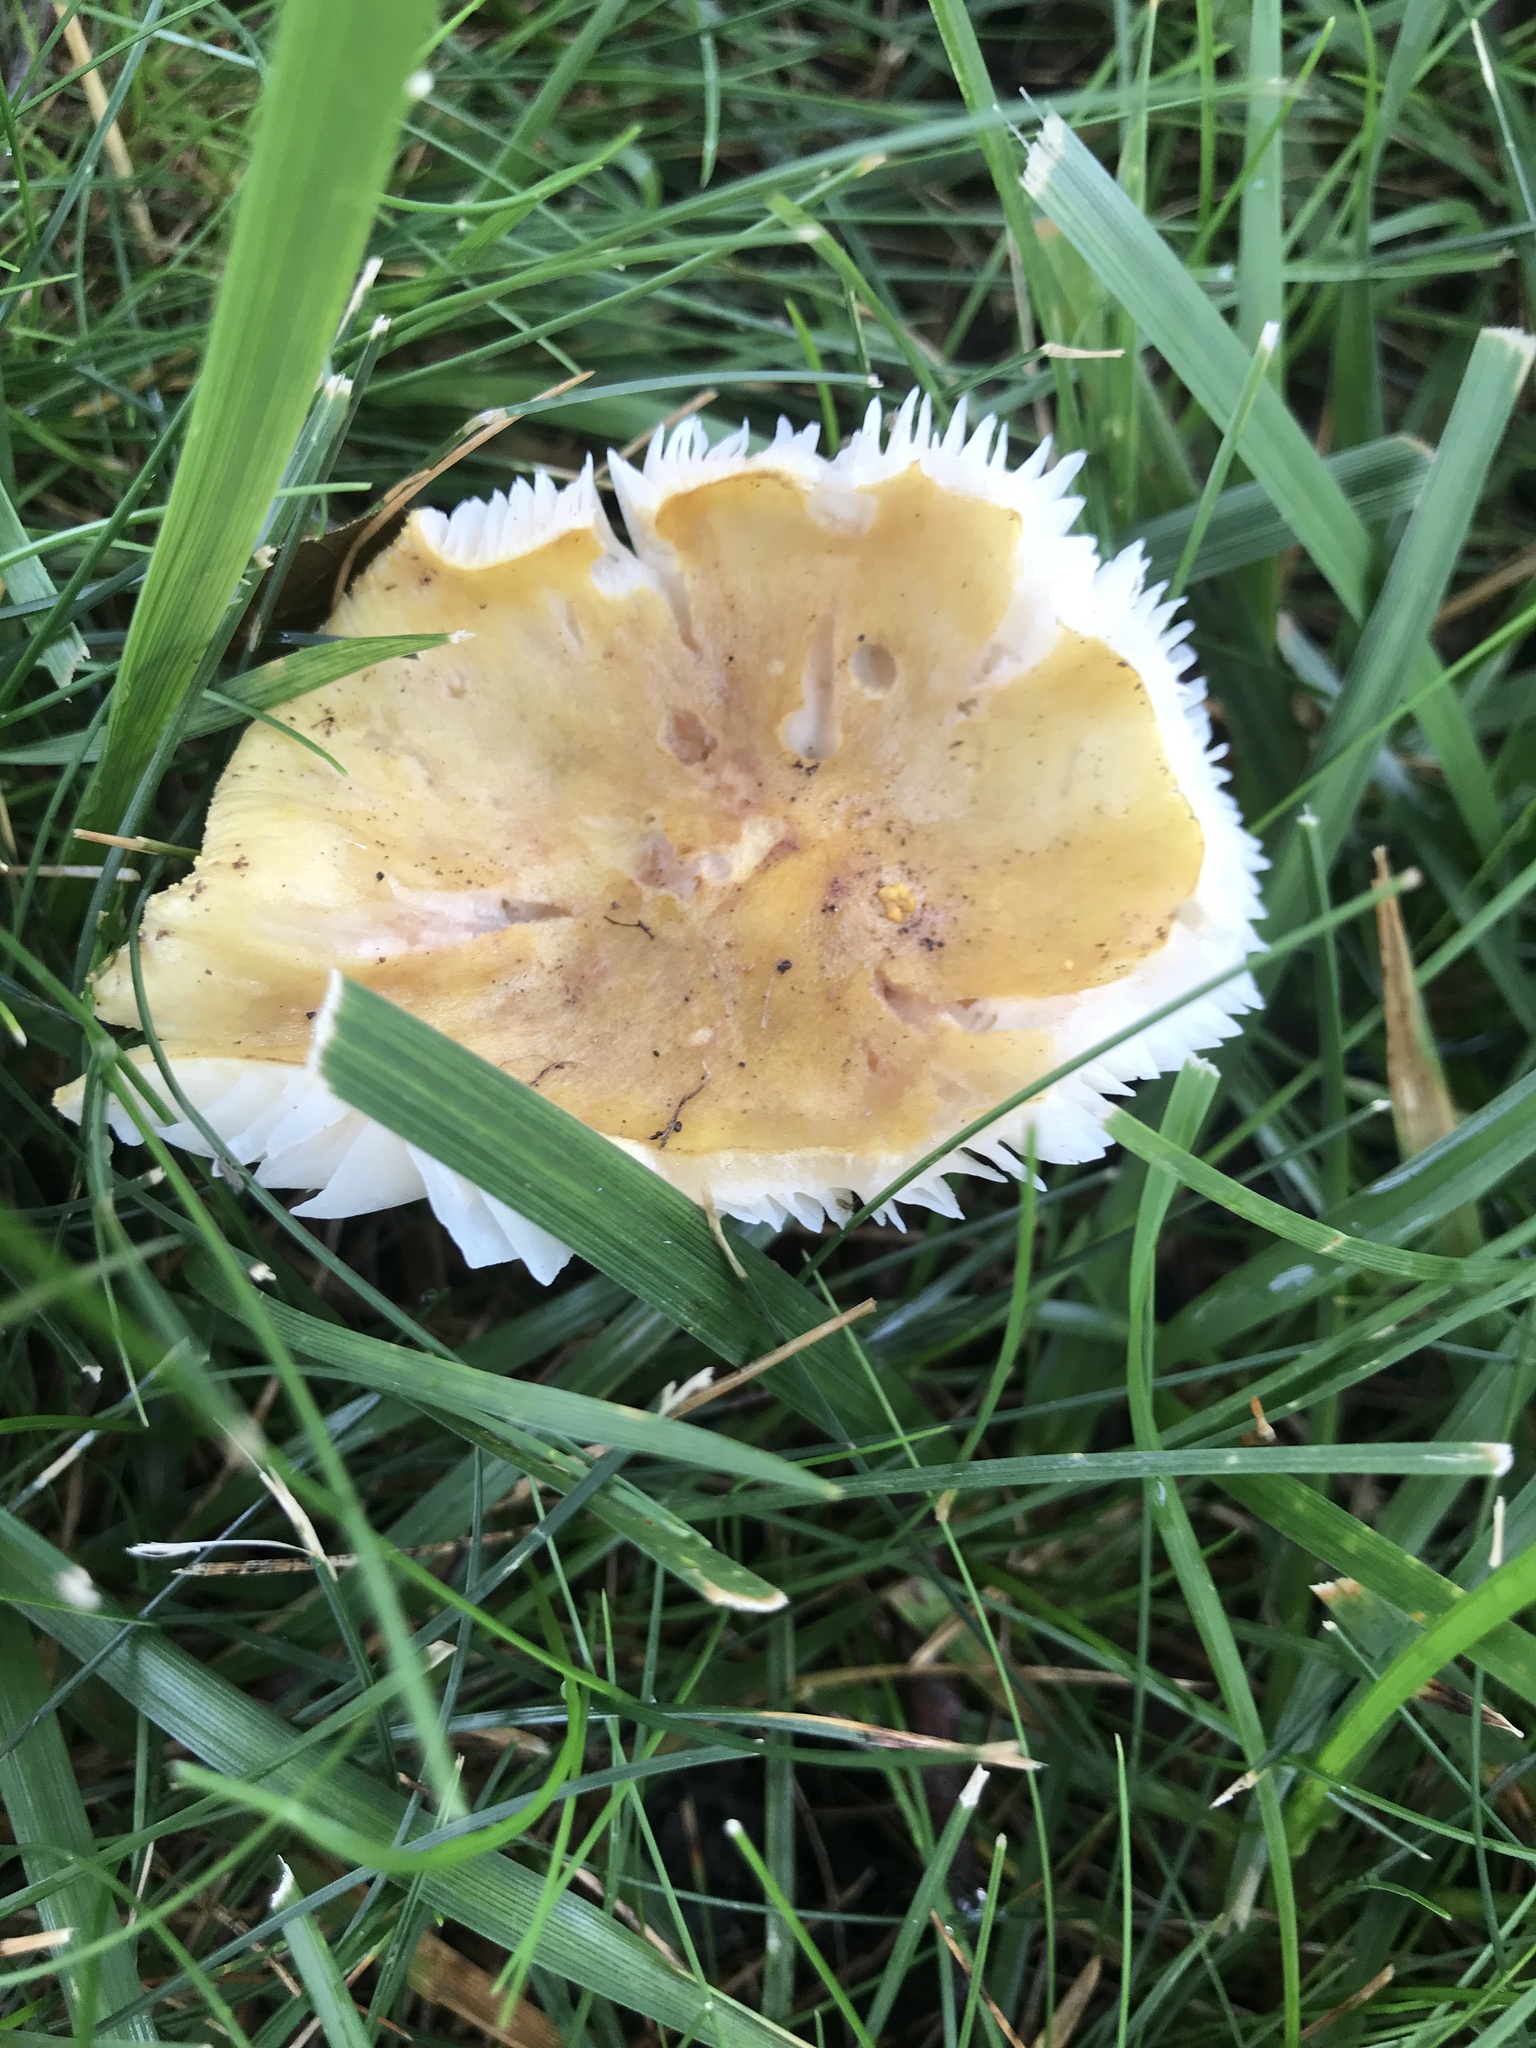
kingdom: Fungi
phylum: Basidiomycota
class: Agaricomycetes
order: Agaricales
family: Amanitaceae
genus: Amanita
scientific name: Amanita flavorubens
